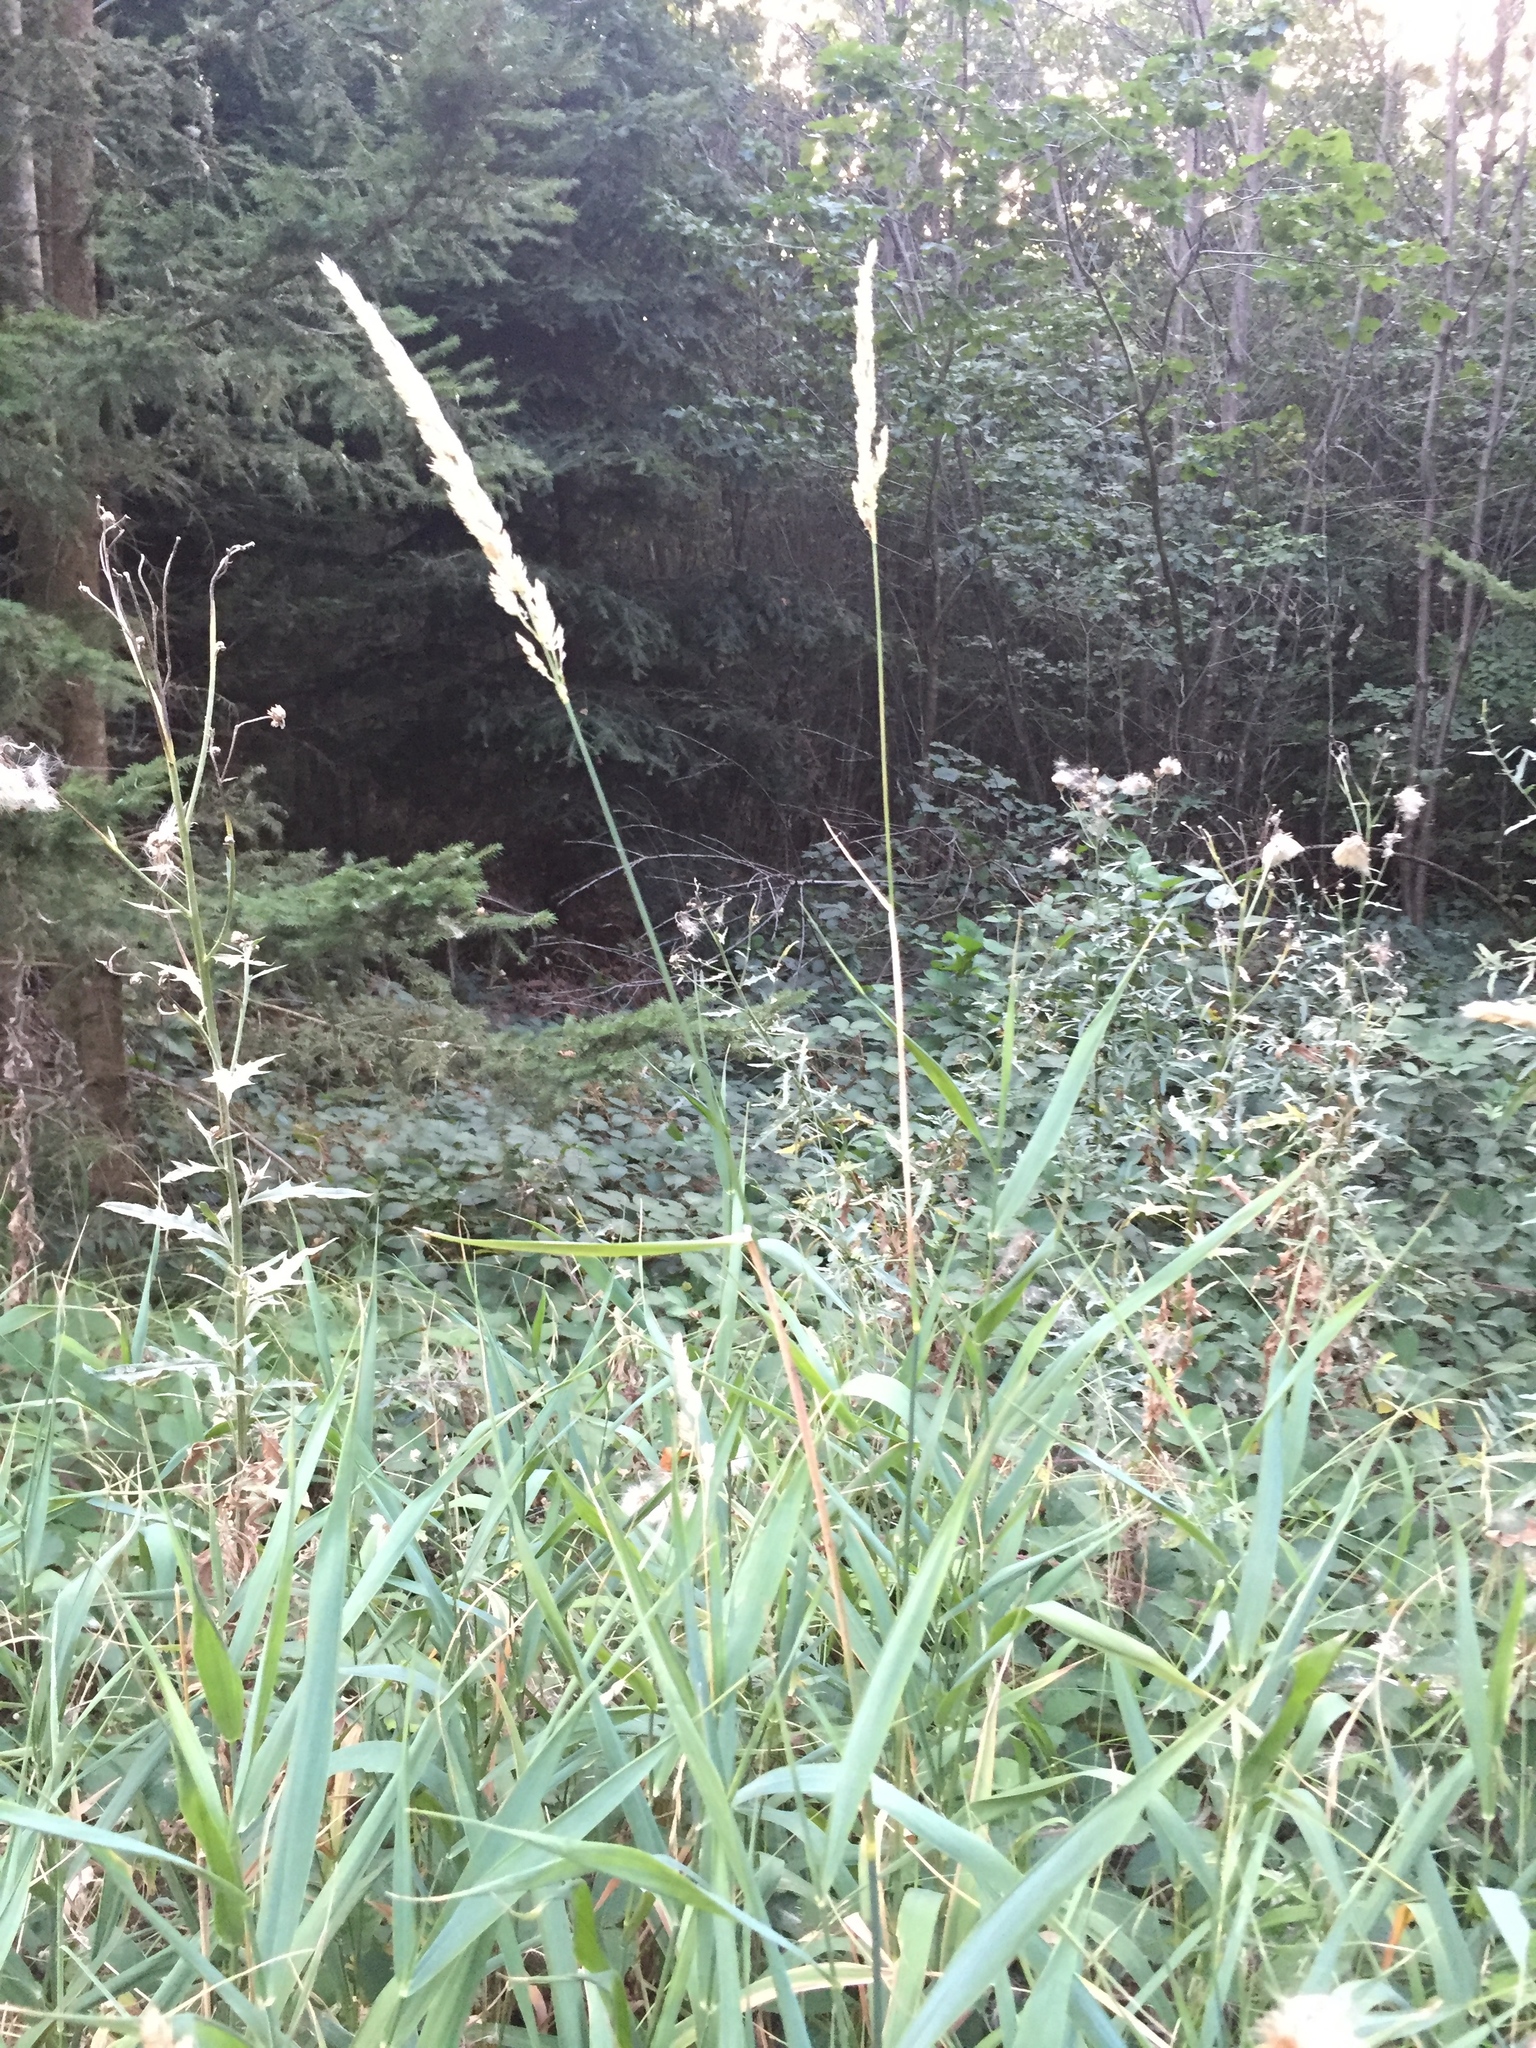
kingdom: Plantae
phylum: Tracheophyta
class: Liliopsida
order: Poales
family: Poaceae
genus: Phalaris
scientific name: Phalaris arundinacea
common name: Reed canary-grass
